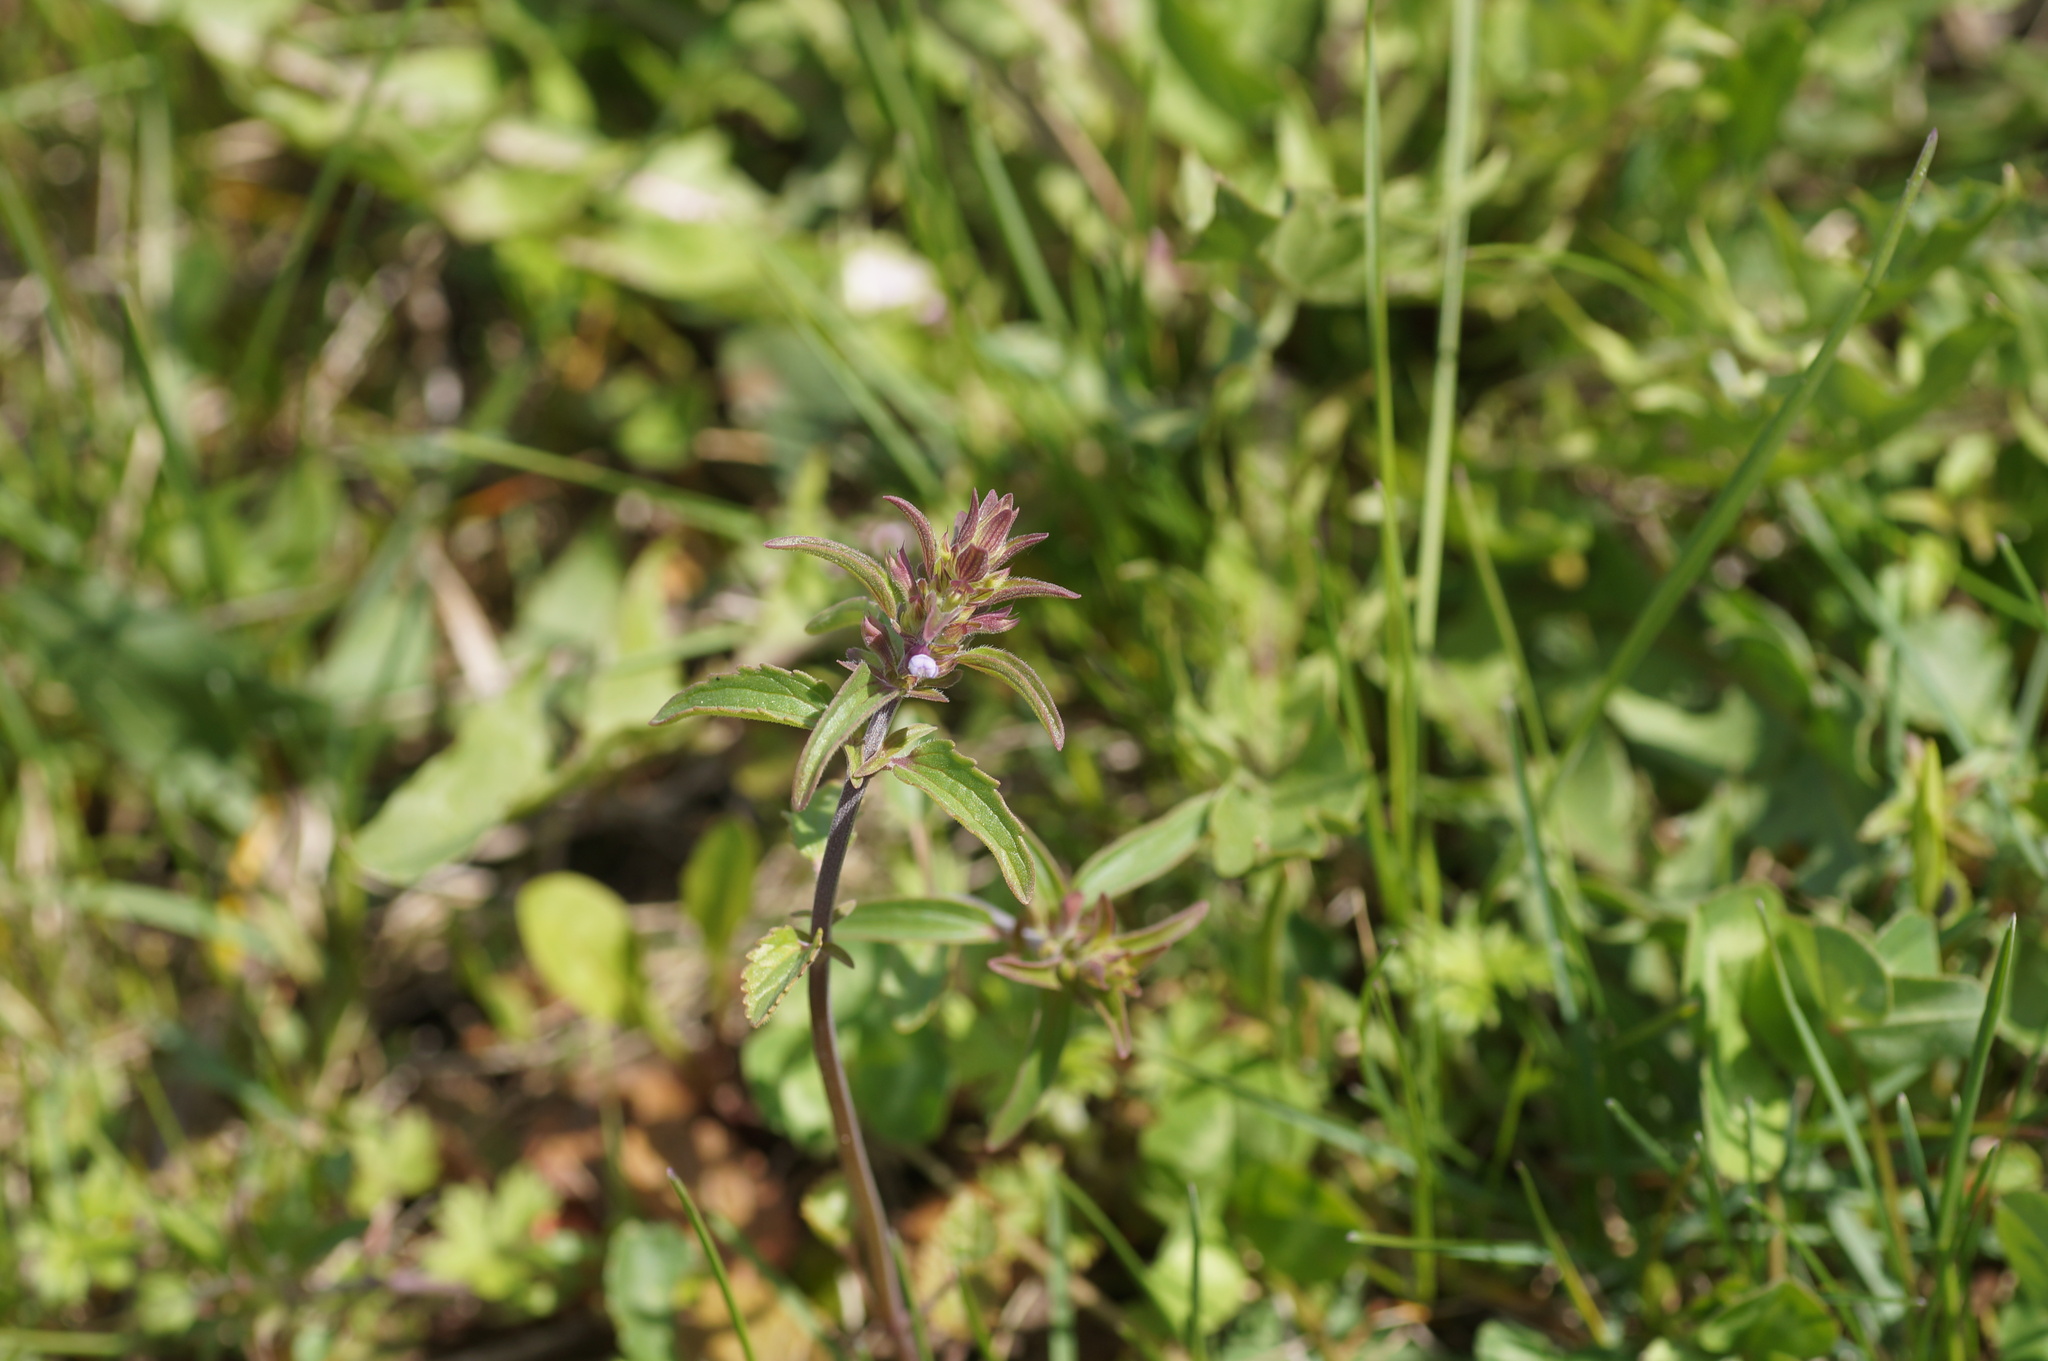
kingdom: Plantae
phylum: Tracheophyta
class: Magnoliopsida
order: Lamiales
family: Lamiaceae
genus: Dracocephalum
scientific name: Dracocephalum thymiflorum
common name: Thymeleaf dragonhead
